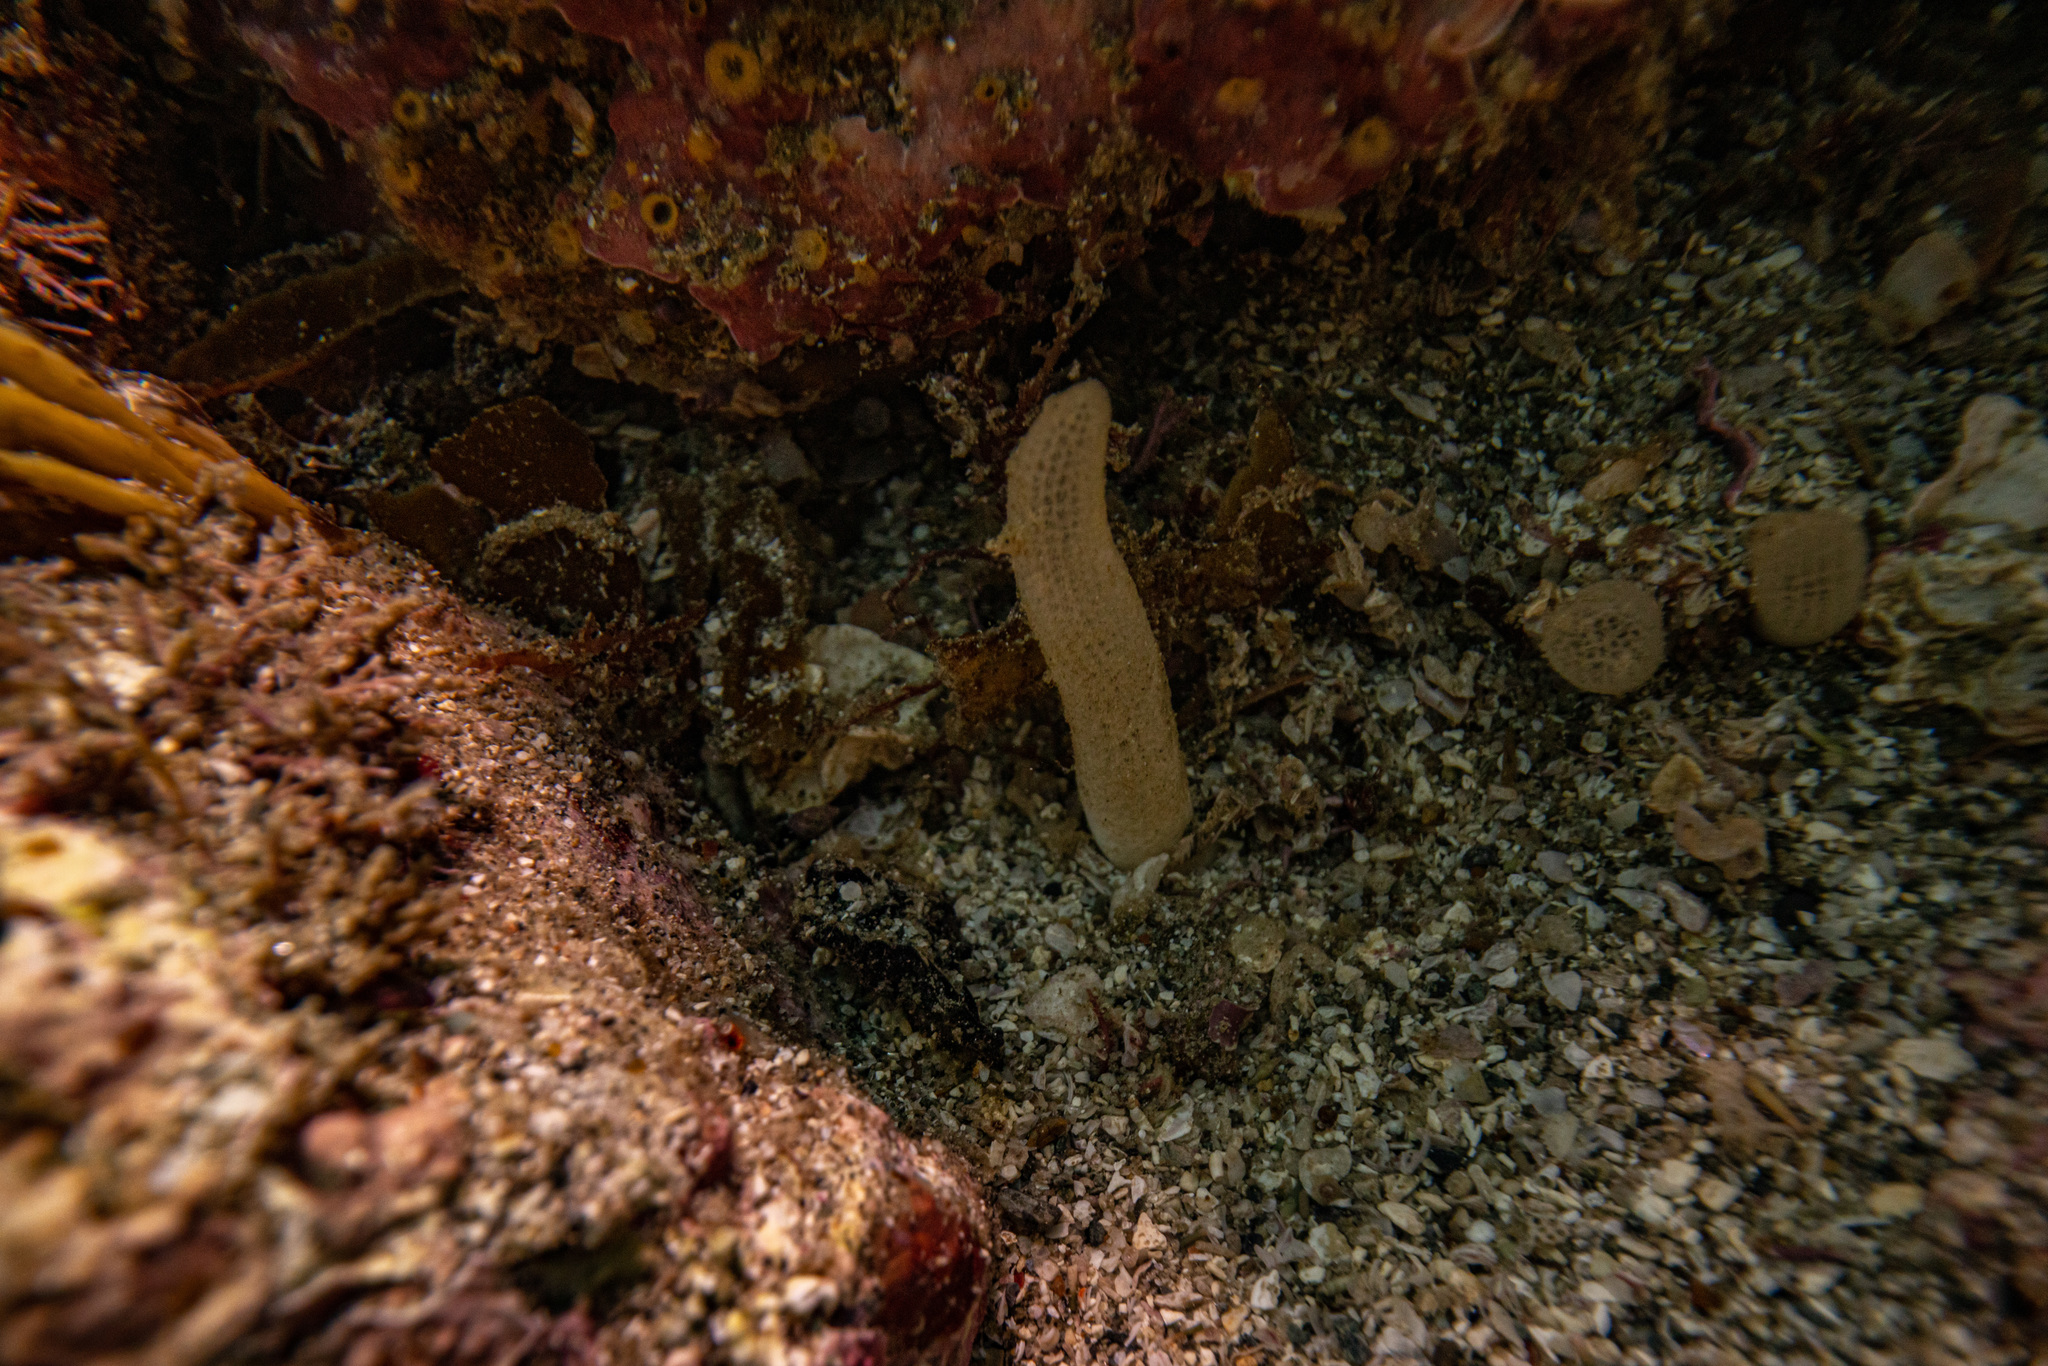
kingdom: Animalia
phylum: Porifera
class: Demospongiae
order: Polymastiida
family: Polymastiidae
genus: Polymastia
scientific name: Polymastia echinus
